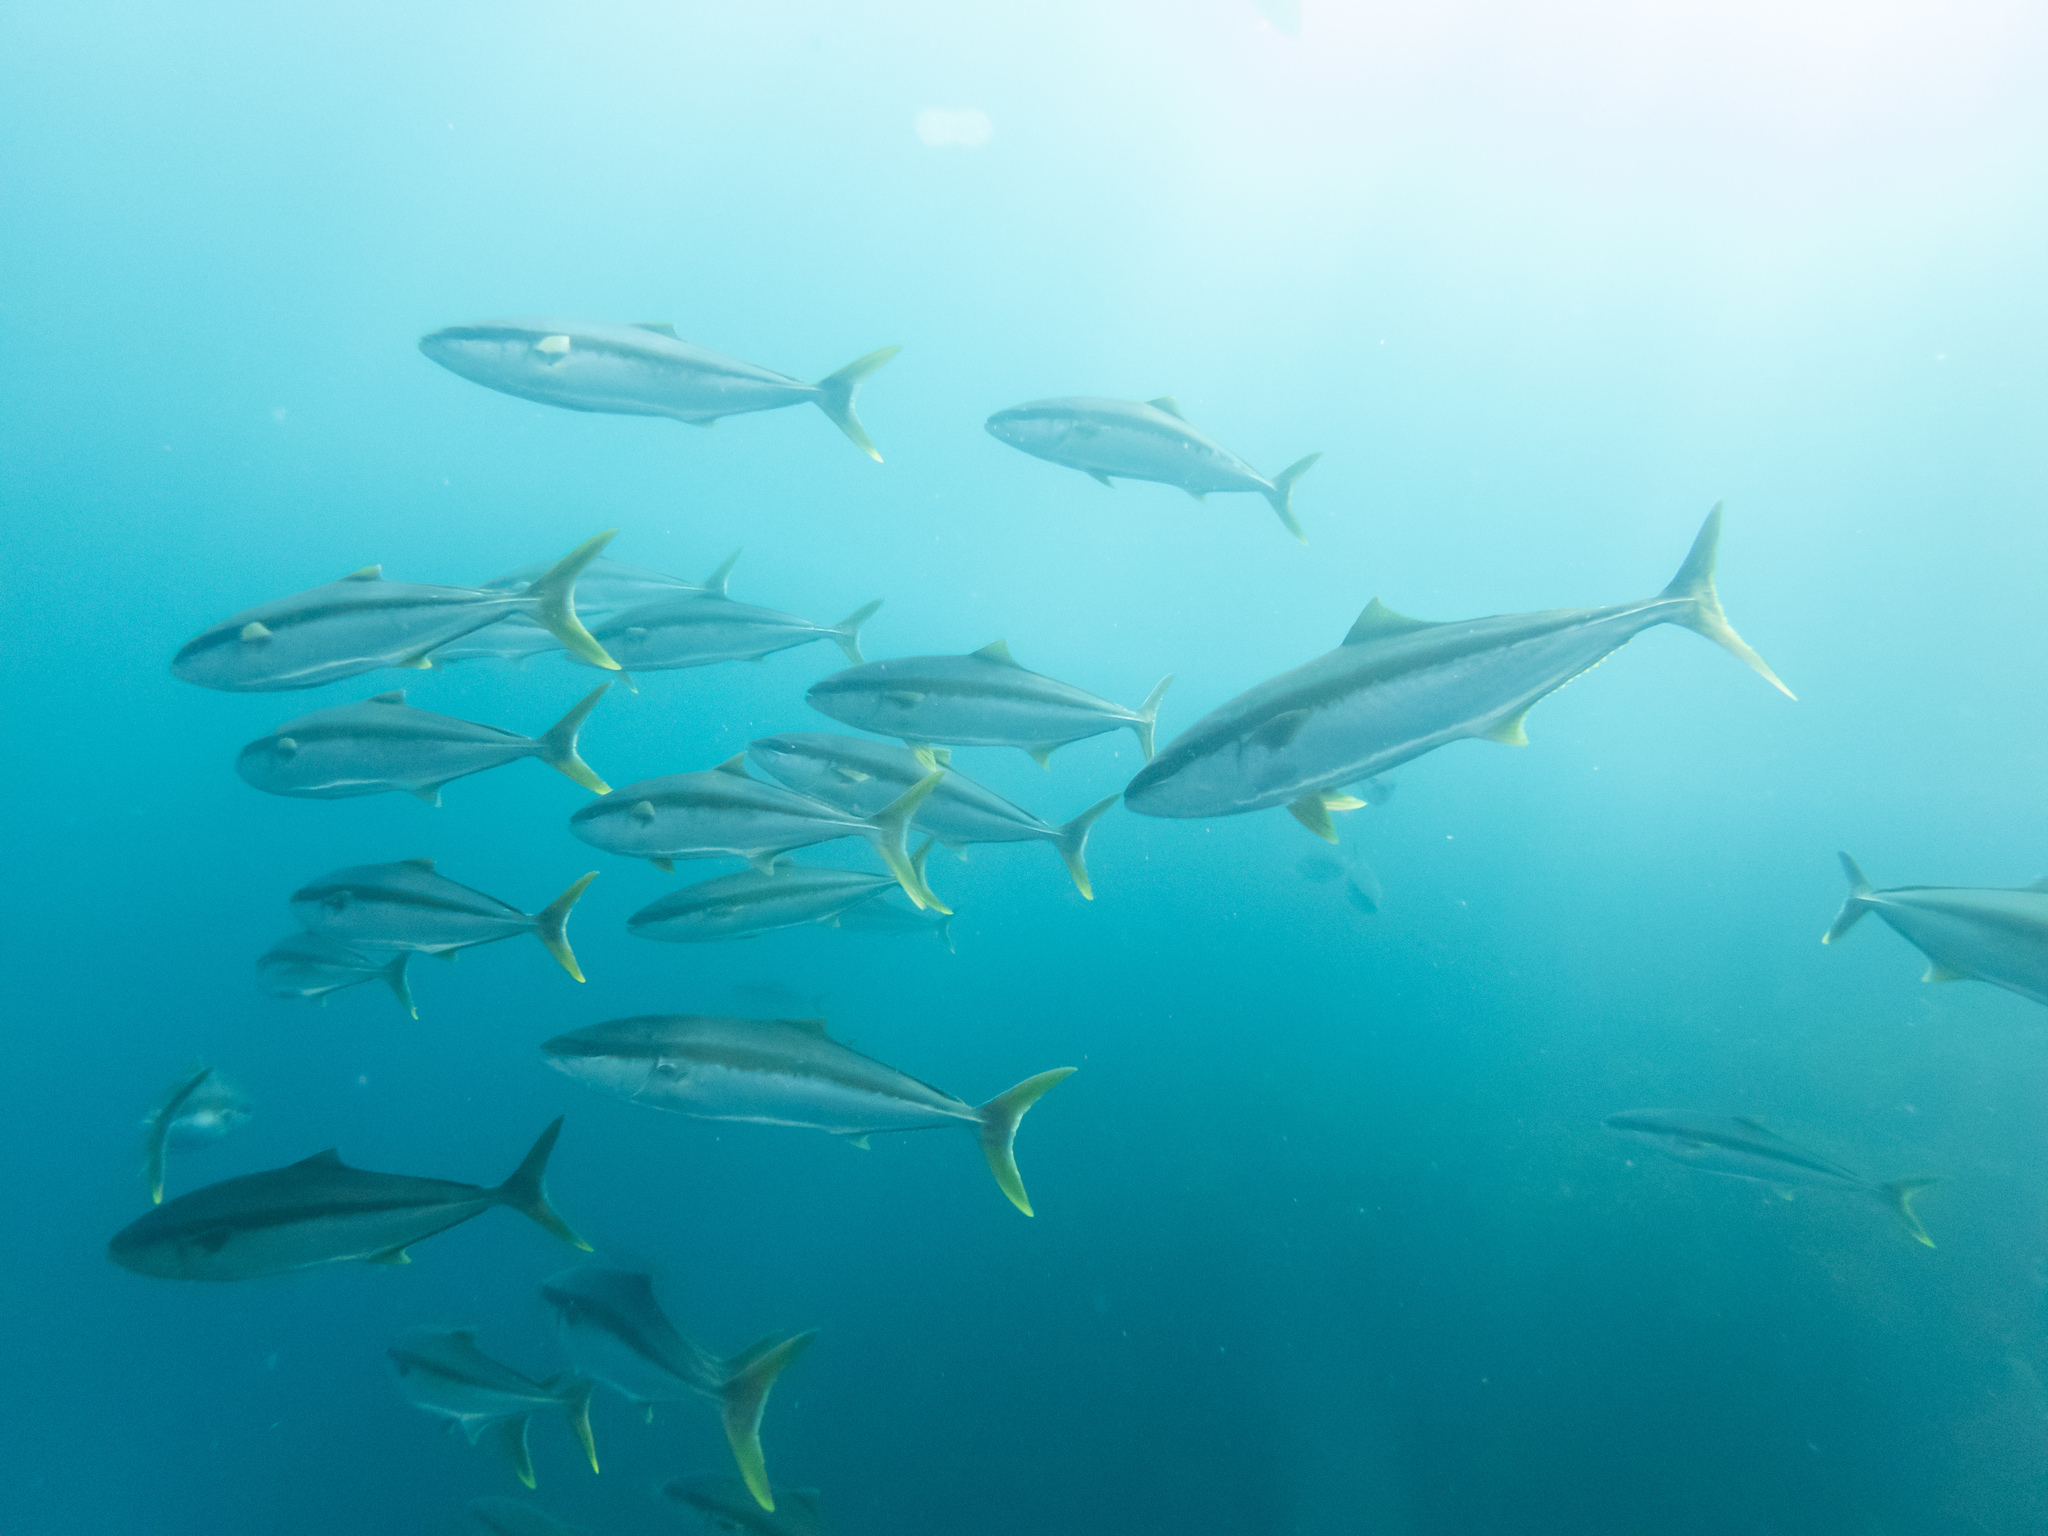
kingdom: Animalia
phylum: Chordata
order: Perciformes
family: Carangidae
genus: Seriola
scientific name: Seriola lalandi
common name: Yellowtail kingfish
